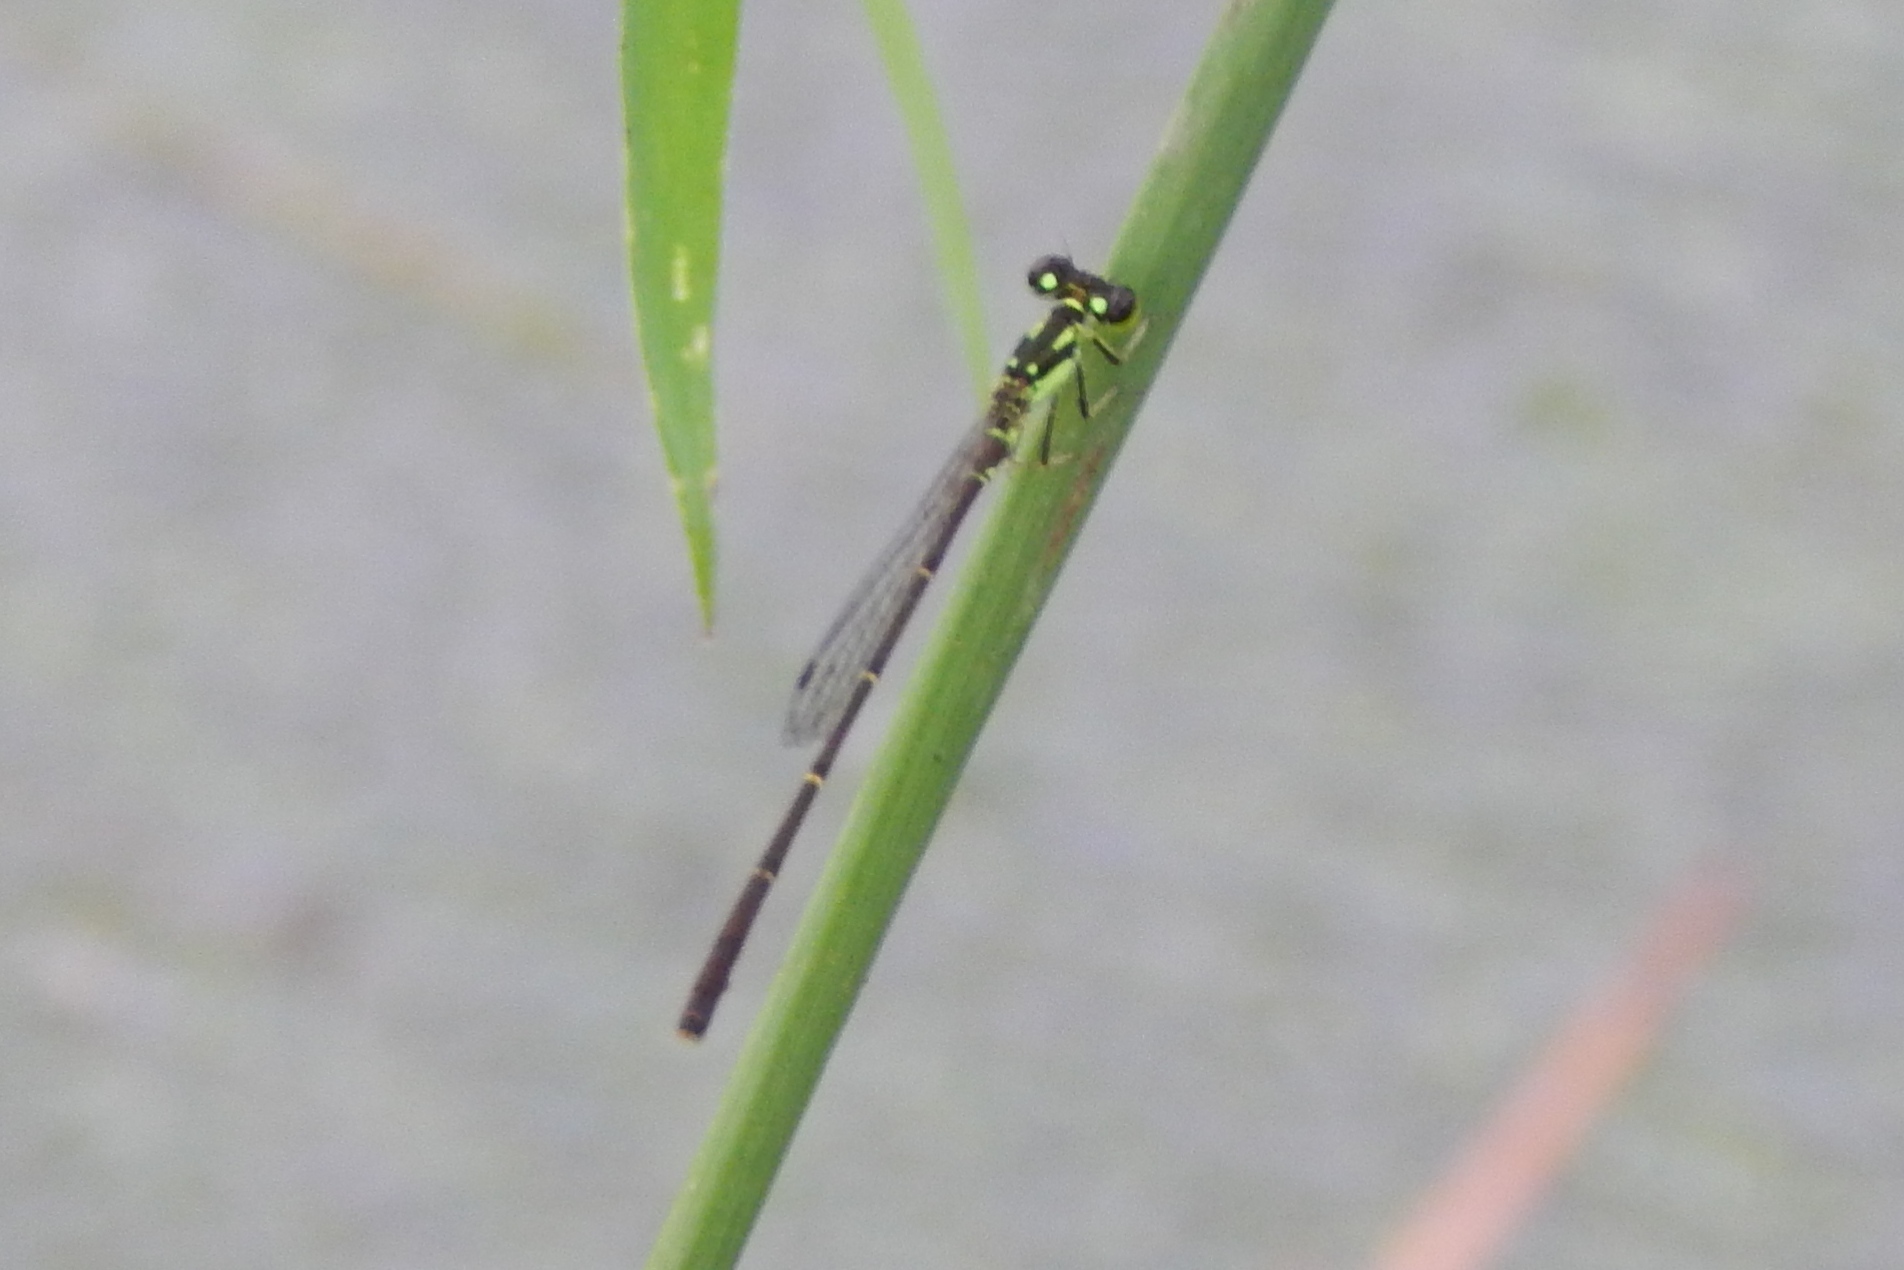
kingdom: Animalia
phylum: Arthropoda
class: Insecta
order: Odonata
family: Coenagrionidae
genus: Ischnura
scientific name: Ischnura posita
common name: Fragile forktail
